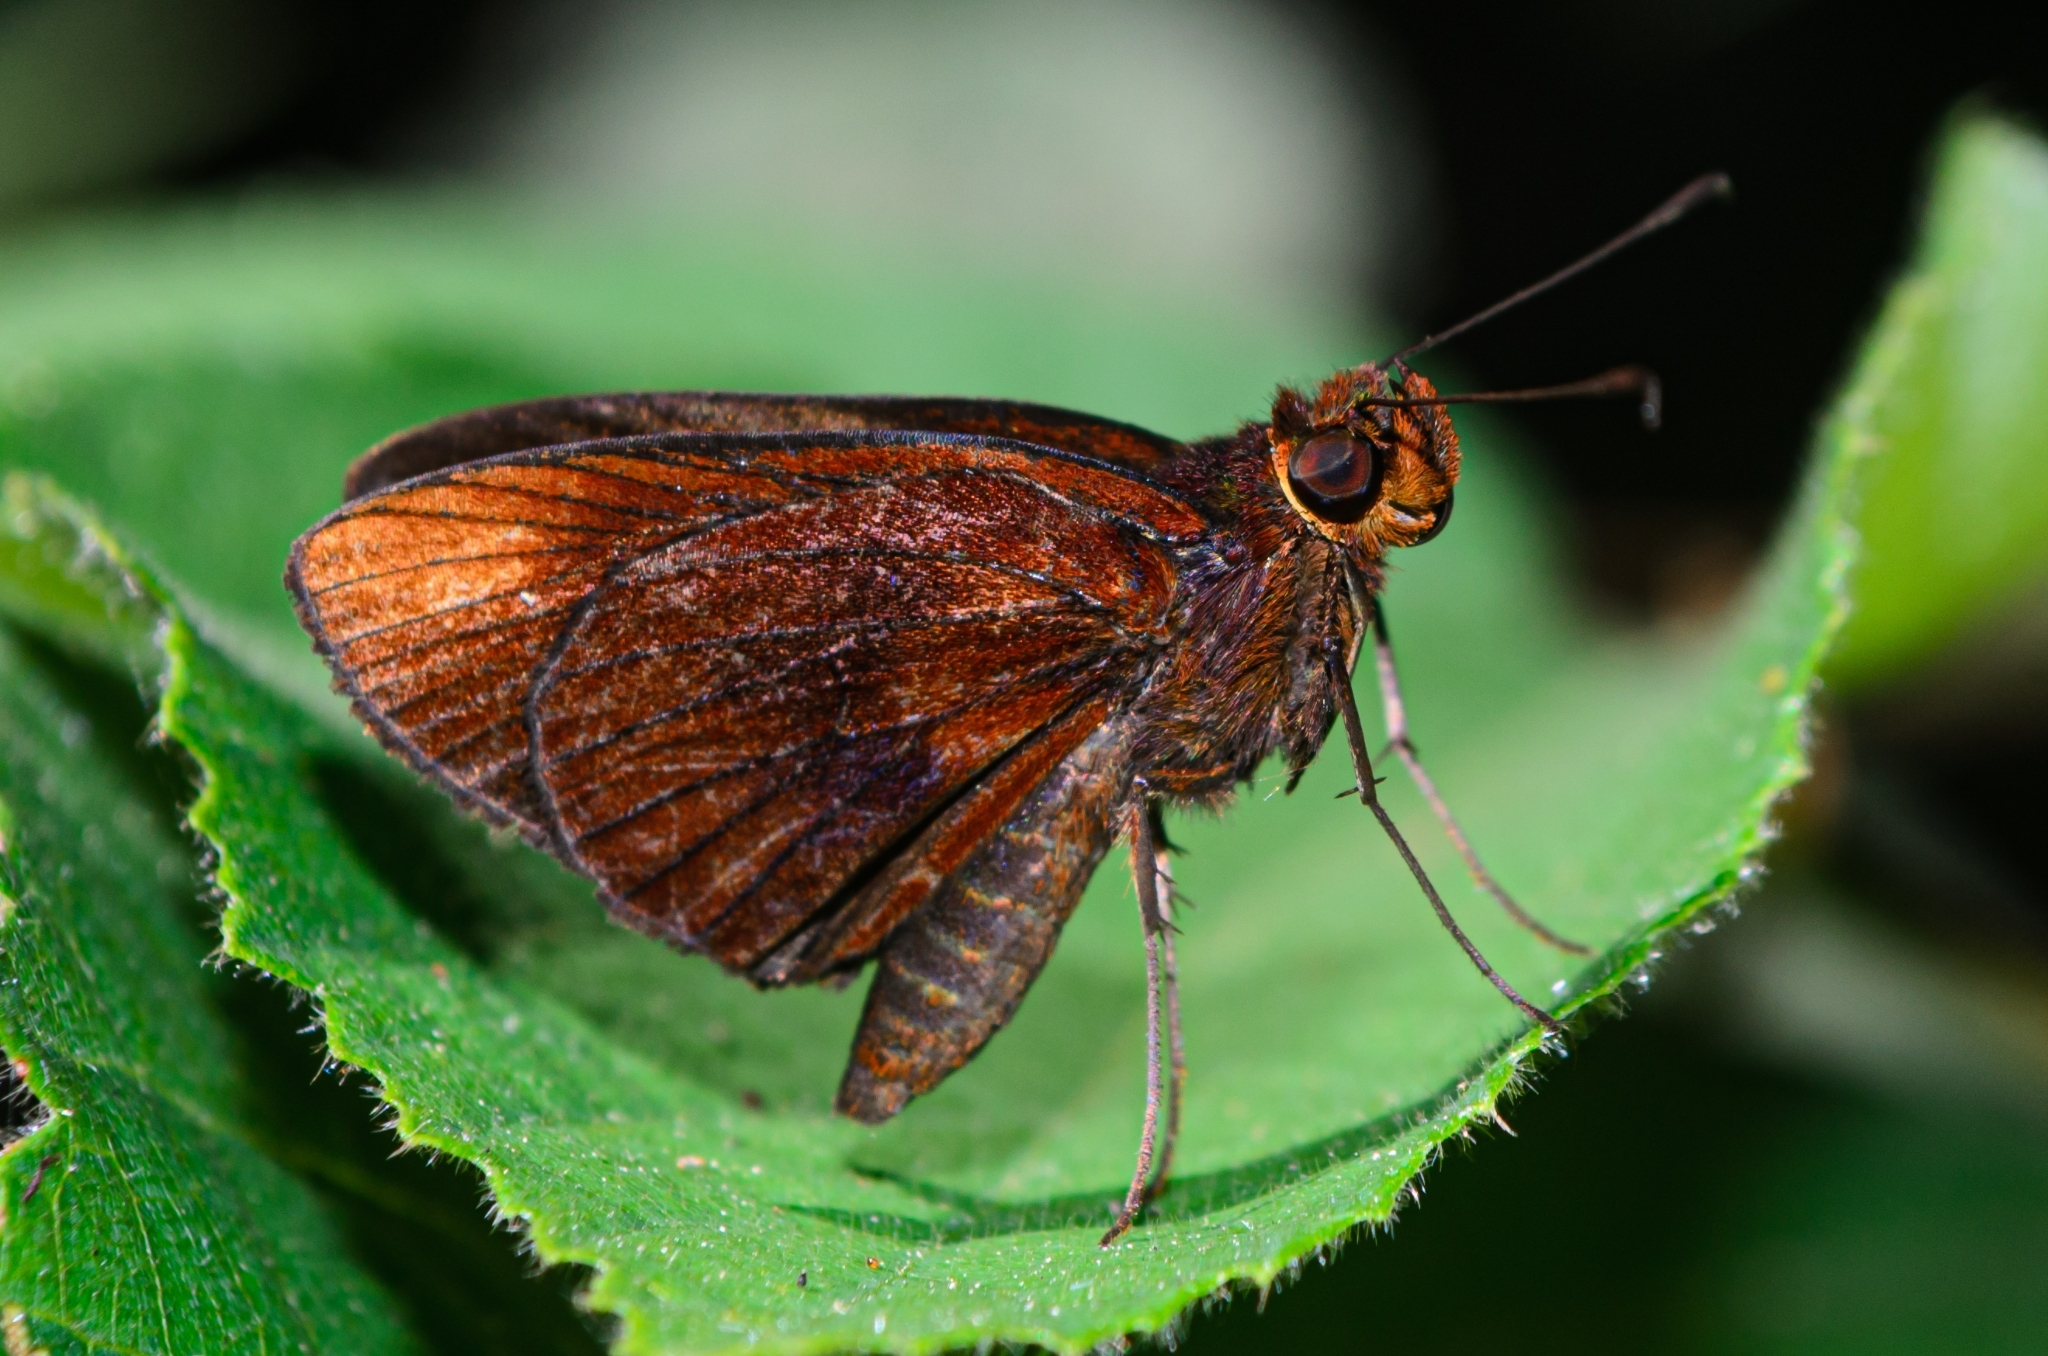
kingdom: Animalia
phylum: Arthropoda
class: Insecta
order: Lepidoptera
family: Hesperiidae
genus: Miltomiges
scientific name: Miltomiges cinnamomea
